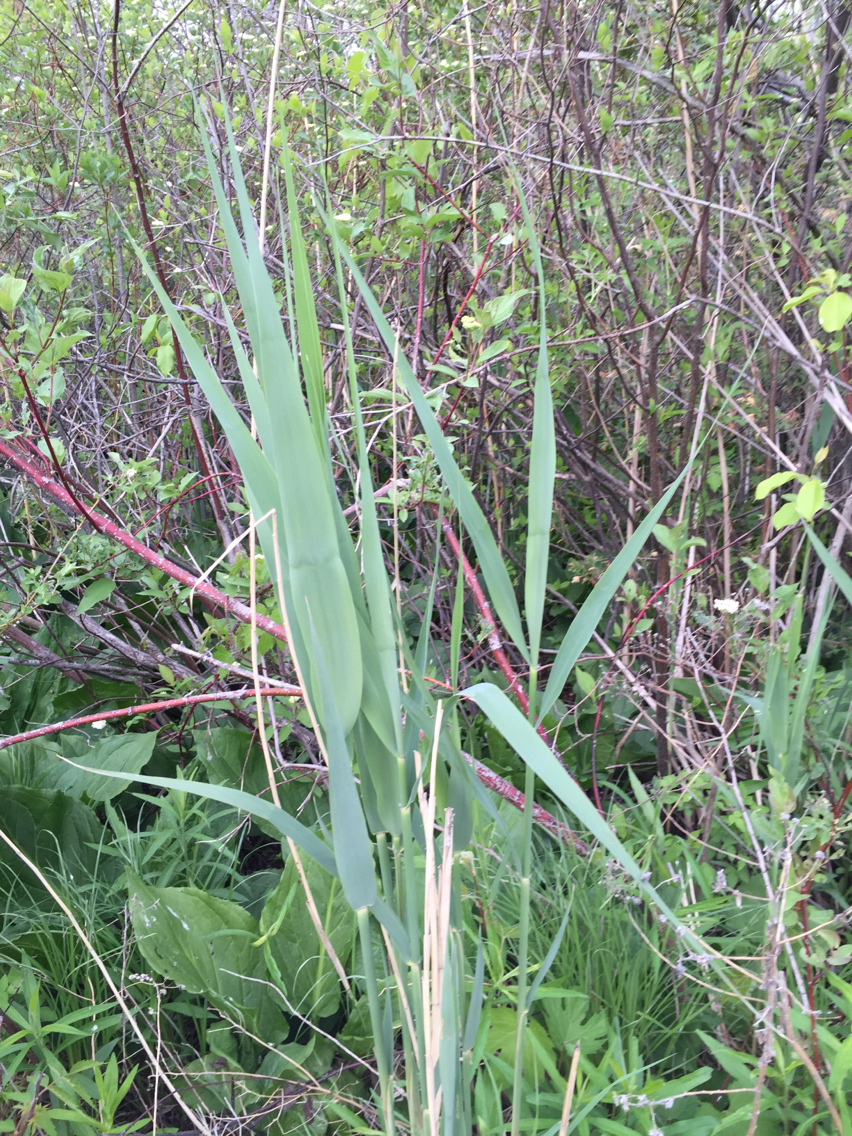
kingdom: Plantae
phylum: Tracheophyta
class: Liliopsida
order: Poales
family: Poaceae
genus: Phragmites
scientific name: Phragmites australis
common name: Common reed
